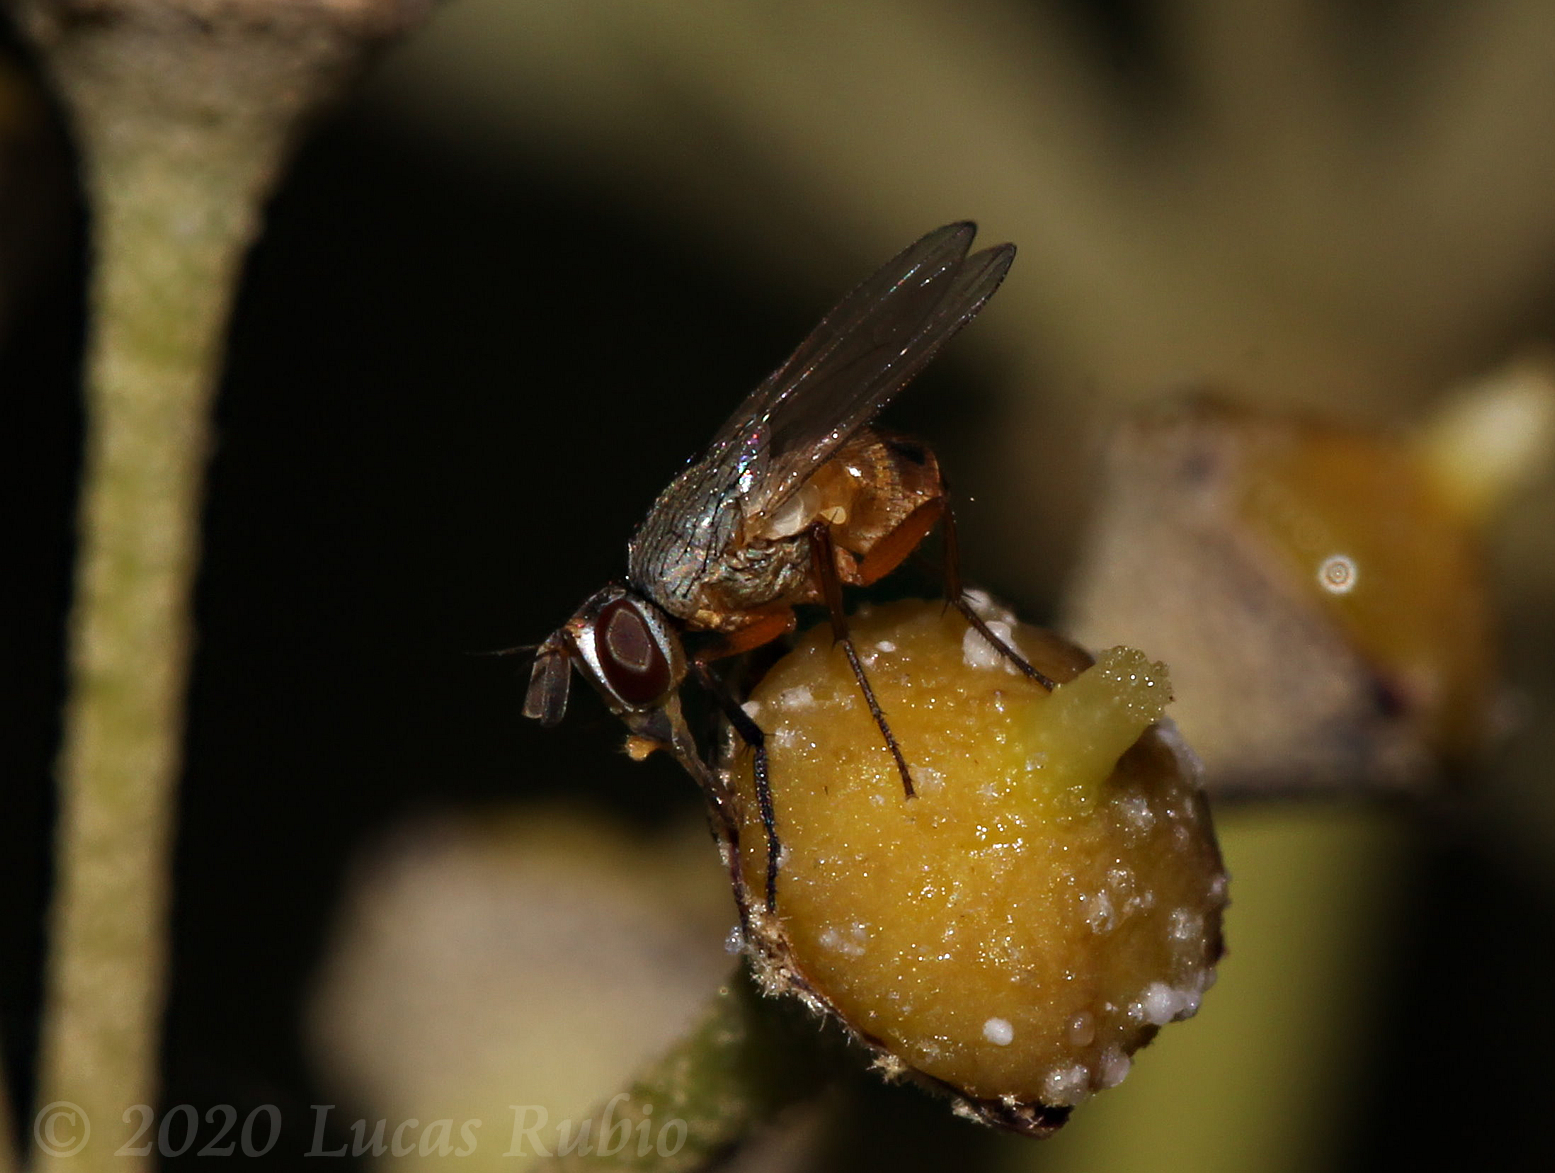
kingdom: Animalia
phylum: Arthropoda
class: Insecta
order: Diptera
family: Muscidae
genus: Atherigona
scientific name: Atherigona reversura
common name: Bermudagrass stem maggot
